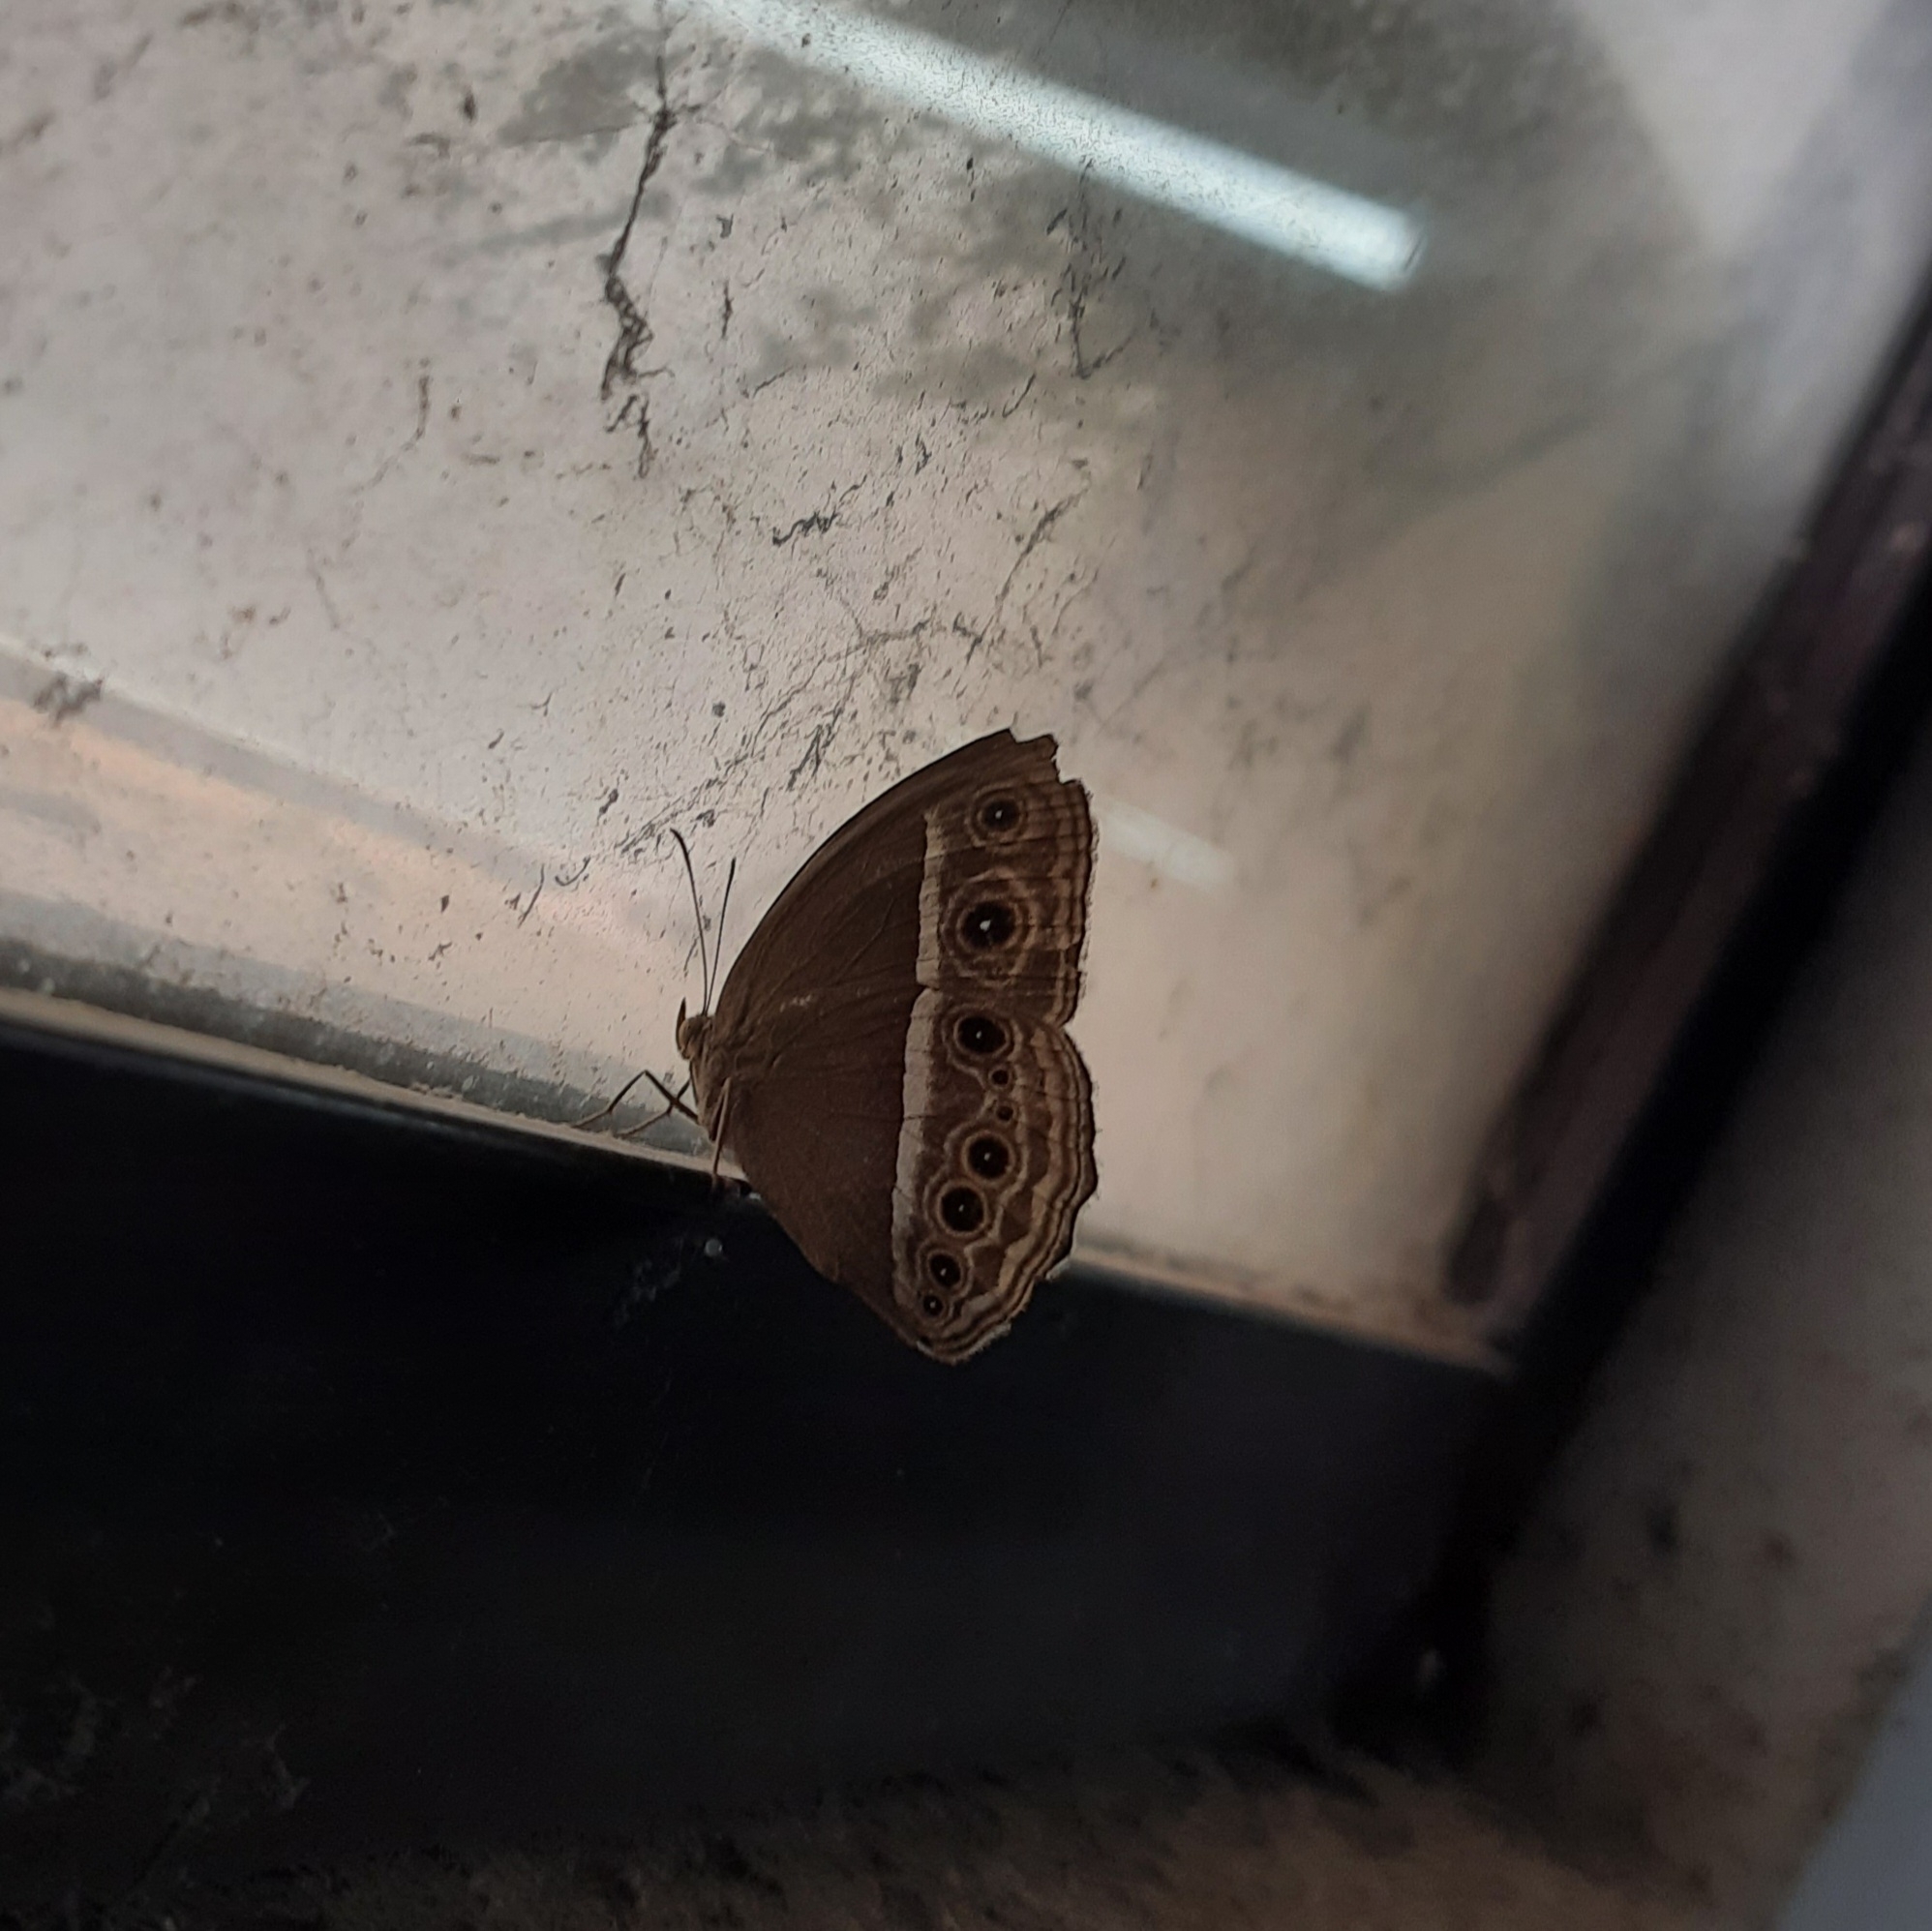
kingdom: Animalia
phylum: Arthropoda
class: Insecta
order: Lepidoptera
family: Nymphalidae
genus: Mycalesis
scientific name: Mycalesis mineus
